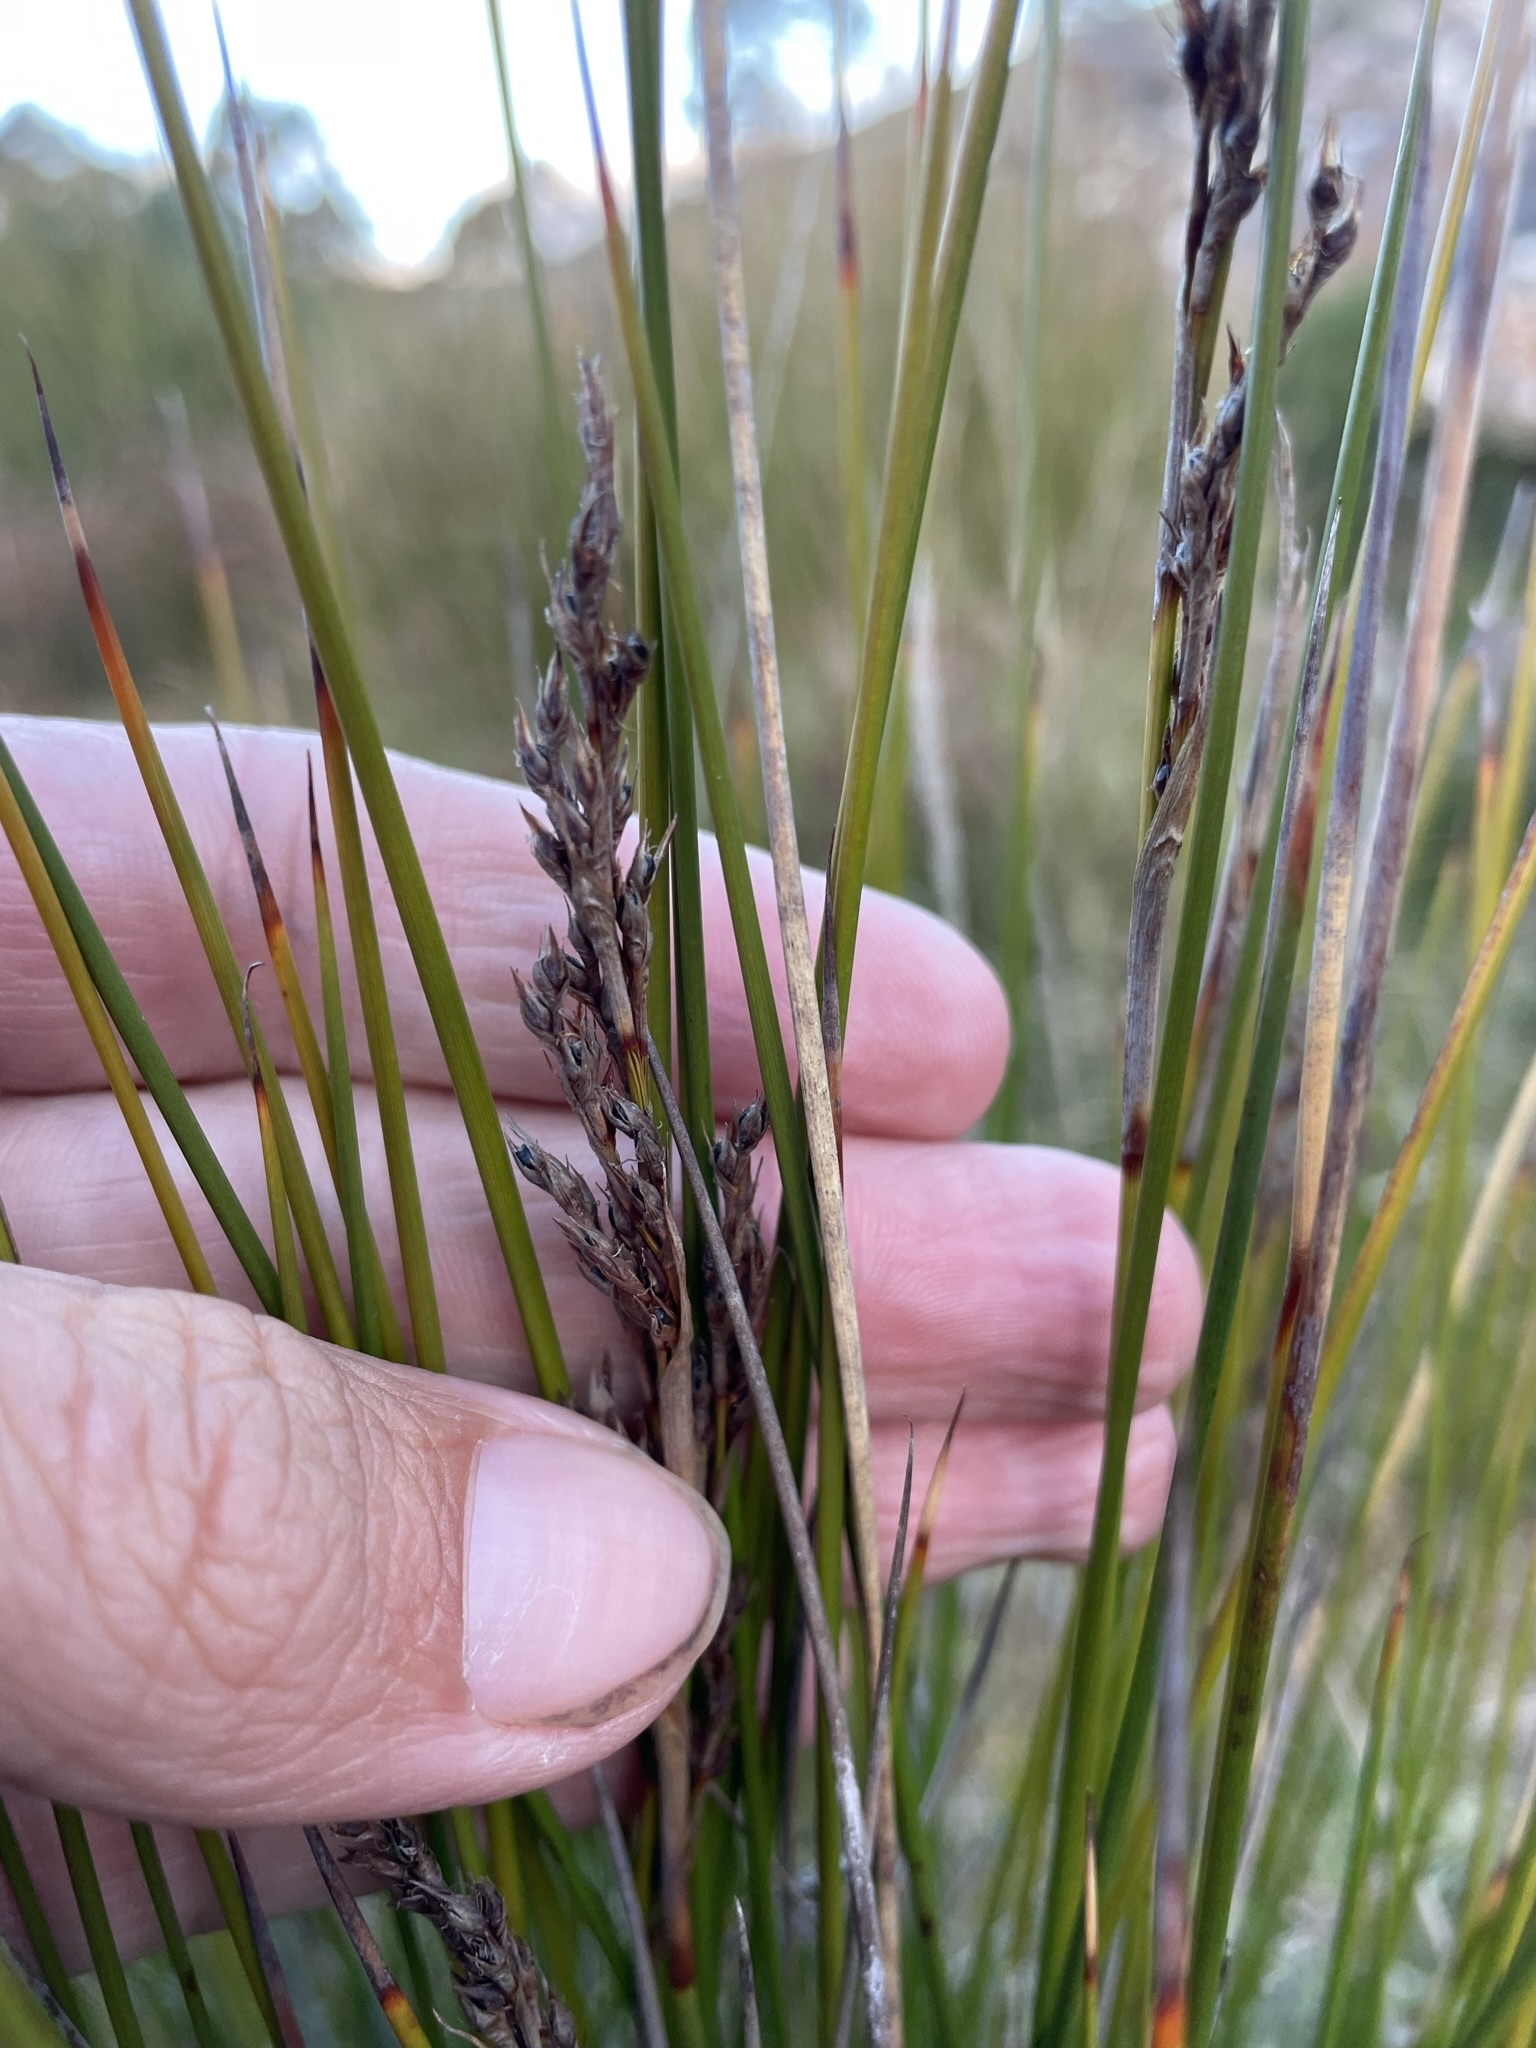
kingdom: Plantae
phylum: Tracheophyta
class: Liliopsida
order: Poales
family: Cyperaceae
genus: Machaerina
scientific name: Machaerina gunnii
